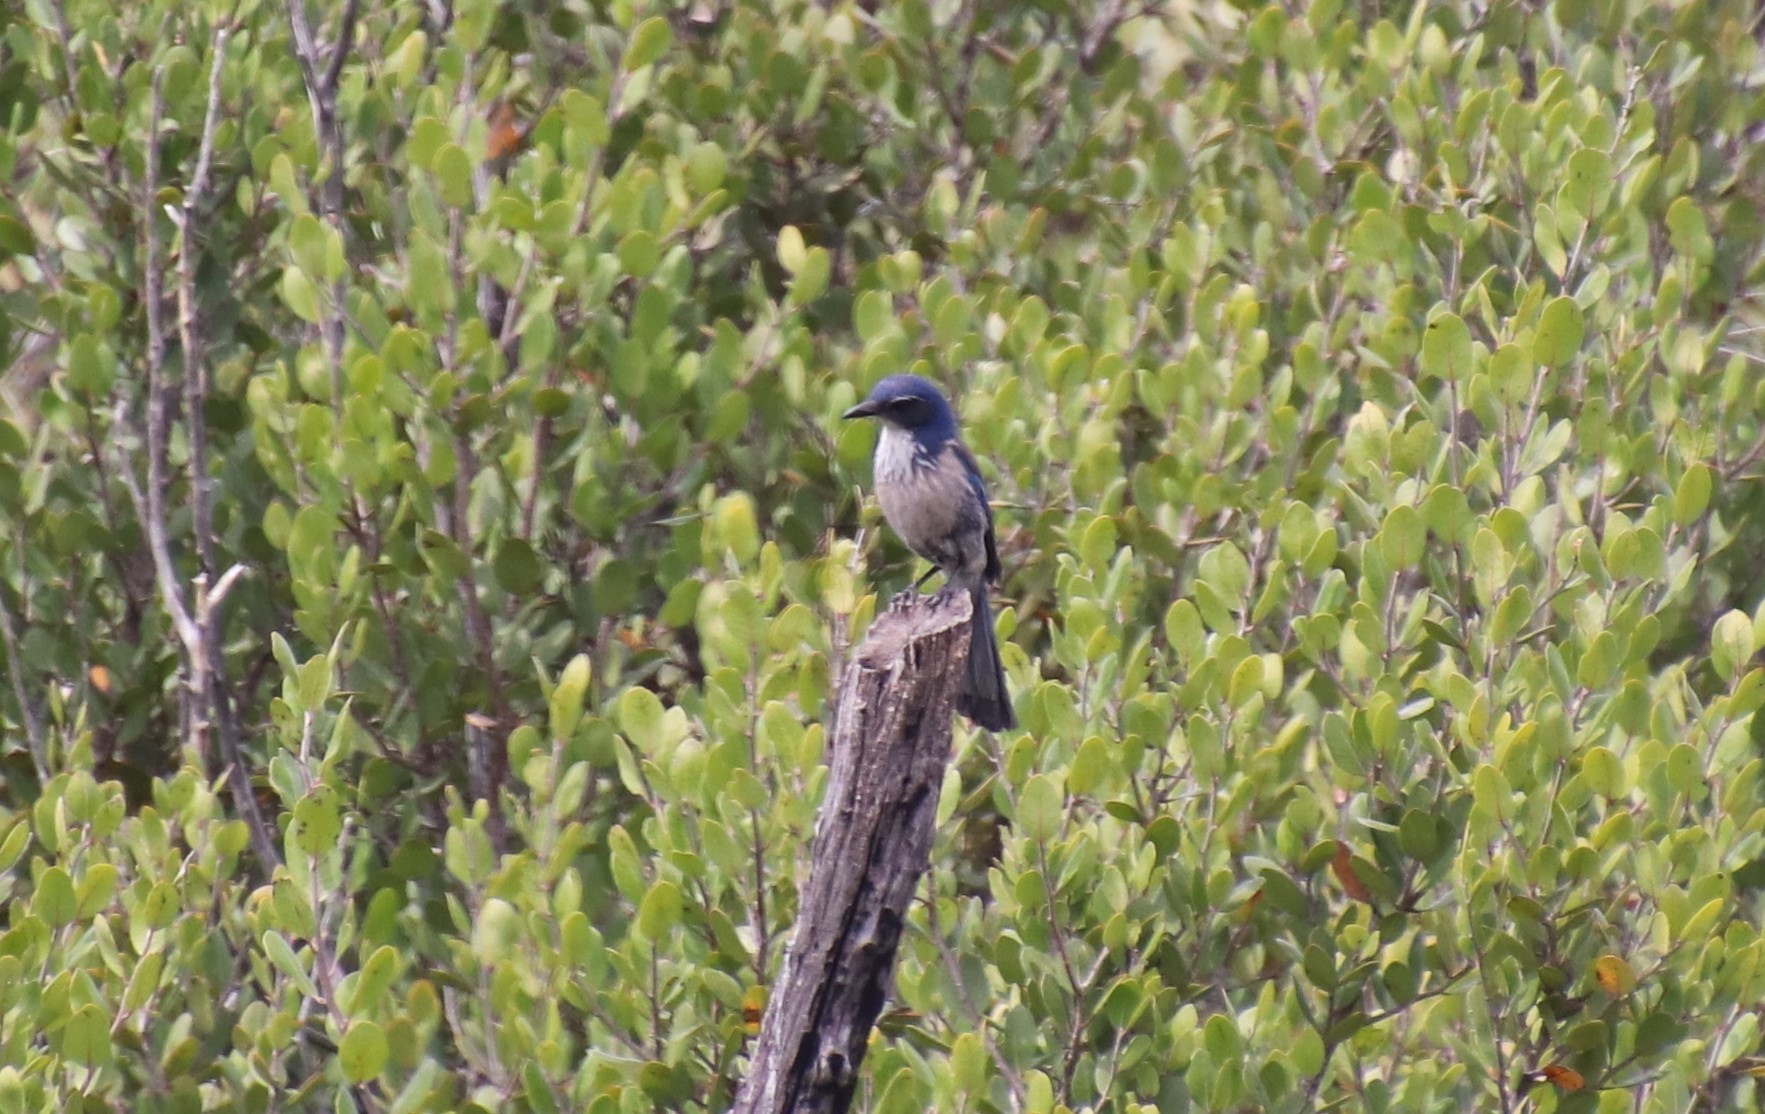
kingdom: Animalia
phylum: Chordata
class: Aves
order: Passeriformes
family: Corvidae
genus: Aphelocoma
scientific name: Aphelocoma californica
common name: California scrub-jay
